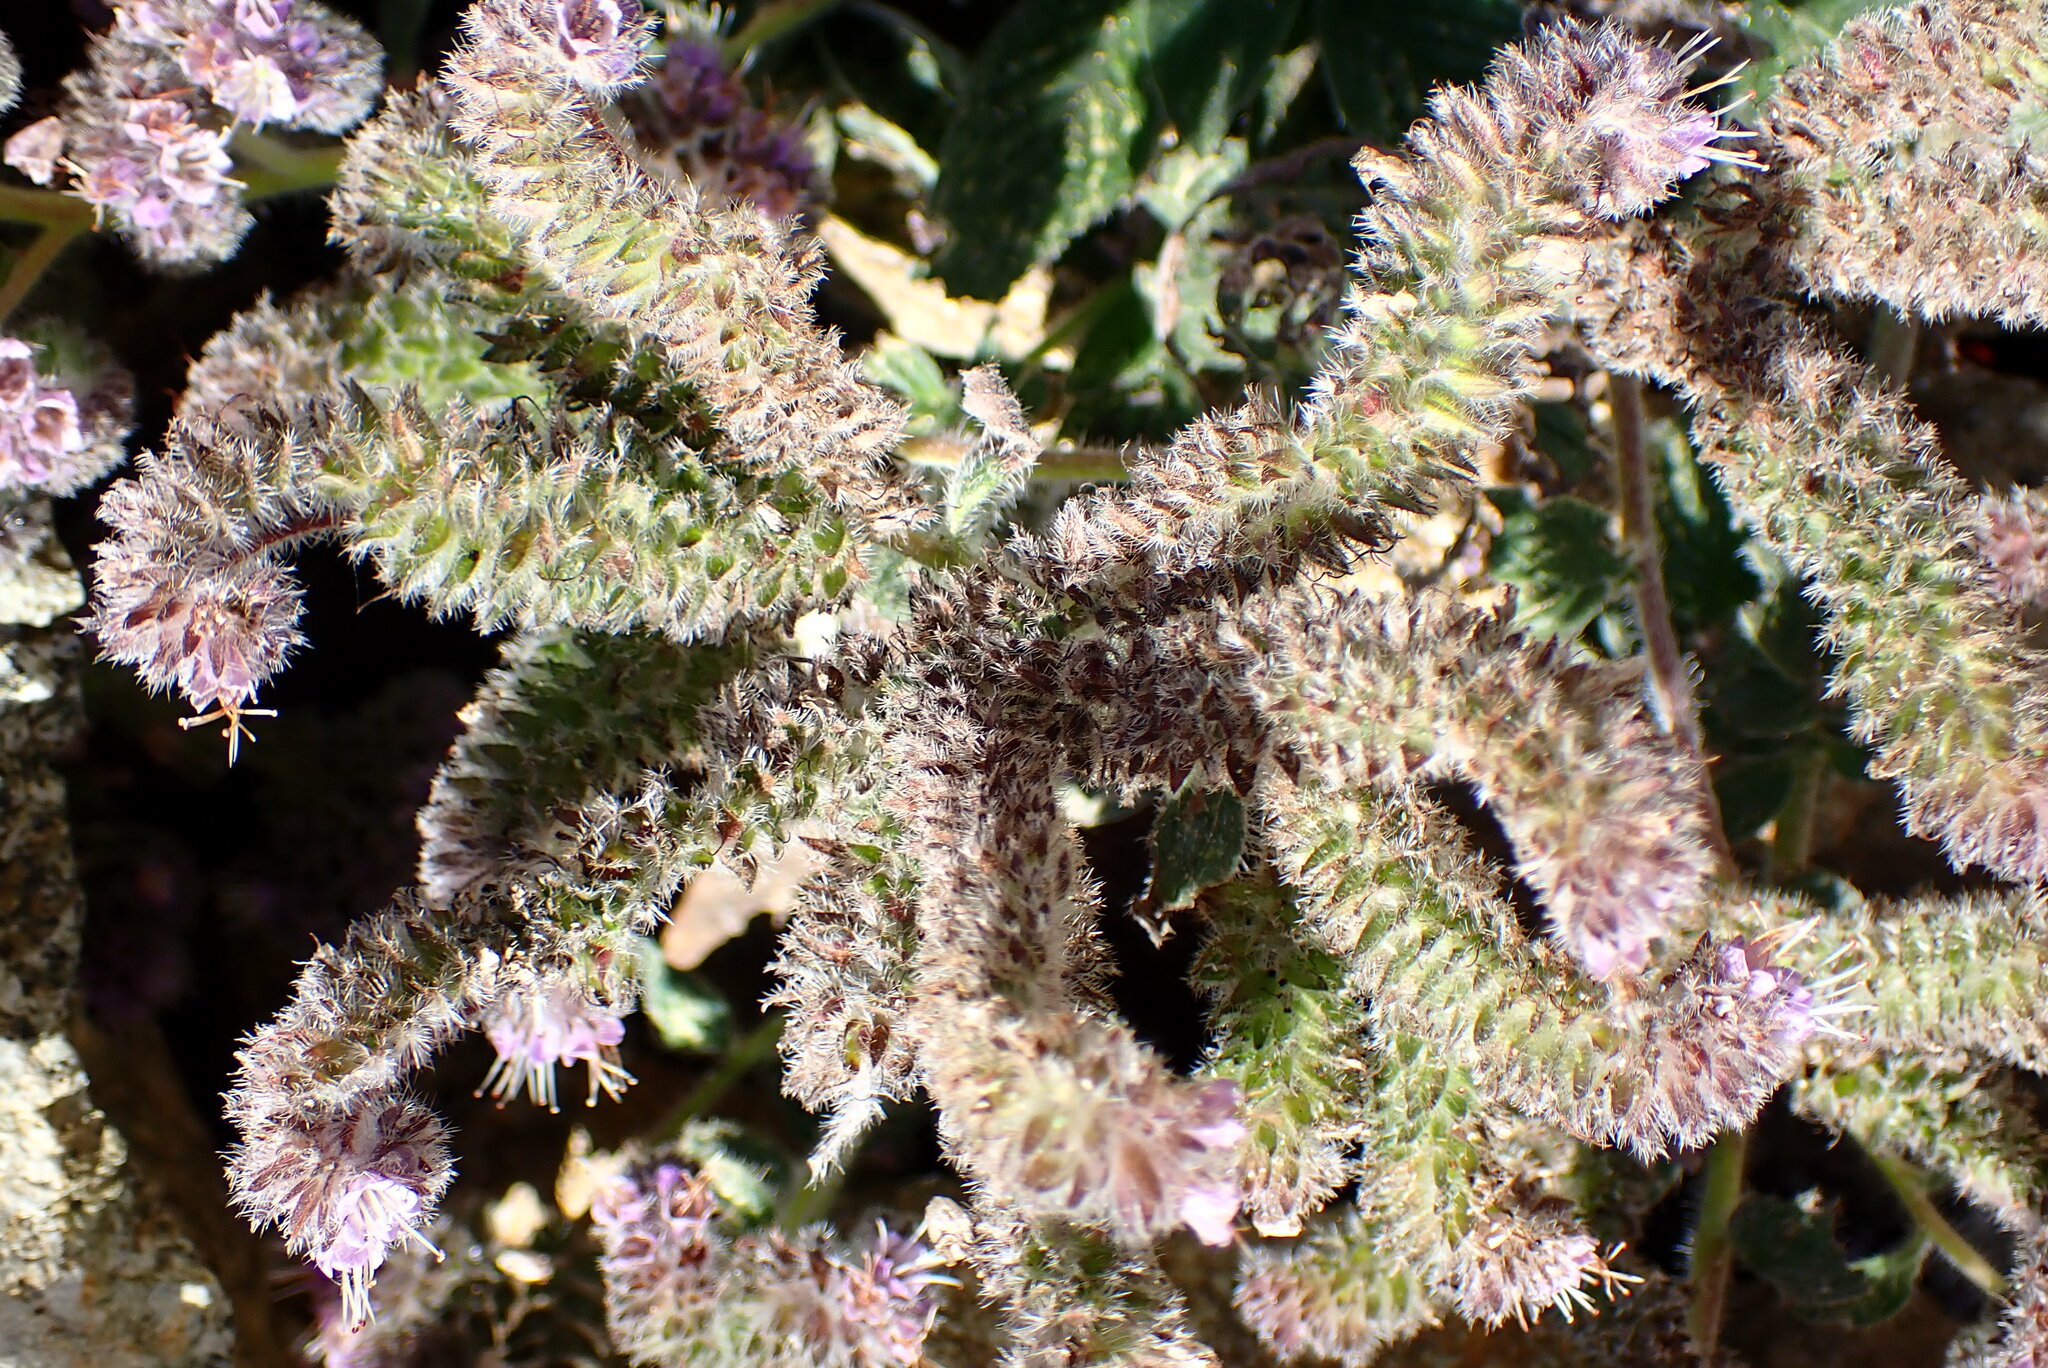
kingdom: Plantae
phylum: Tracheophyta
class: Magnoliopsida
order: Boraginales
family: Hydrophyllaceae
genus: Phacelia
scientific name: Phacelia californica
